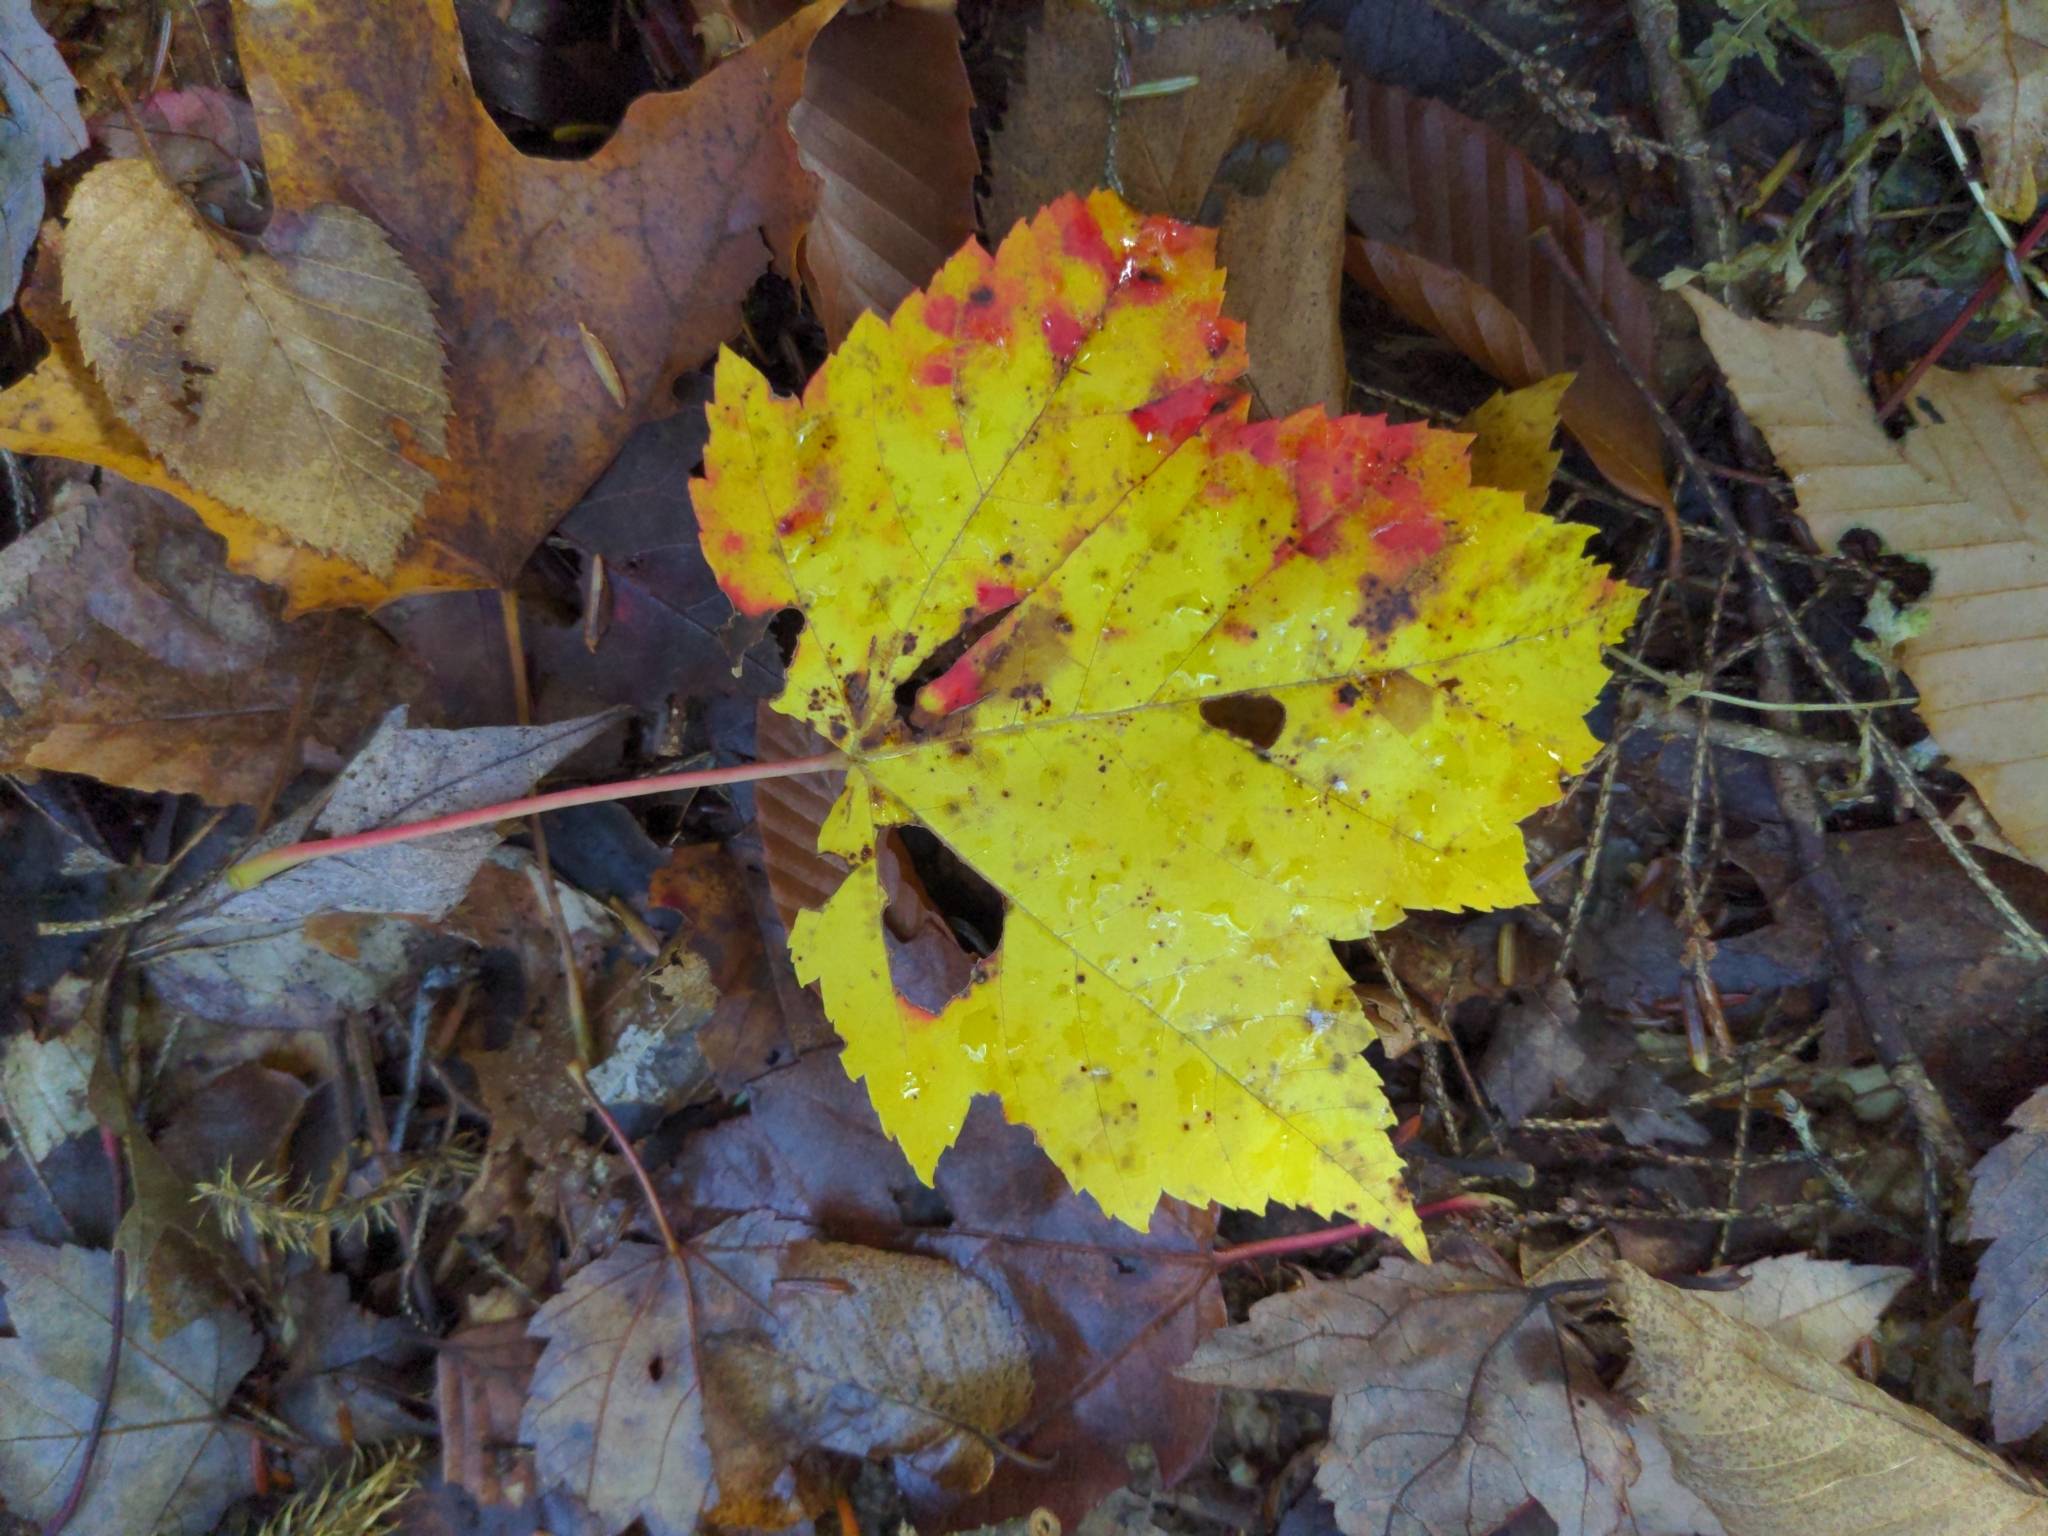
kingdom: Plantae
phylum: Tracheophyta
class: Magnoliopsida
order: Sapindales
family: Sapindaceae
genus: Acer
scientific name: Acer rubrum
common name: Red maple
